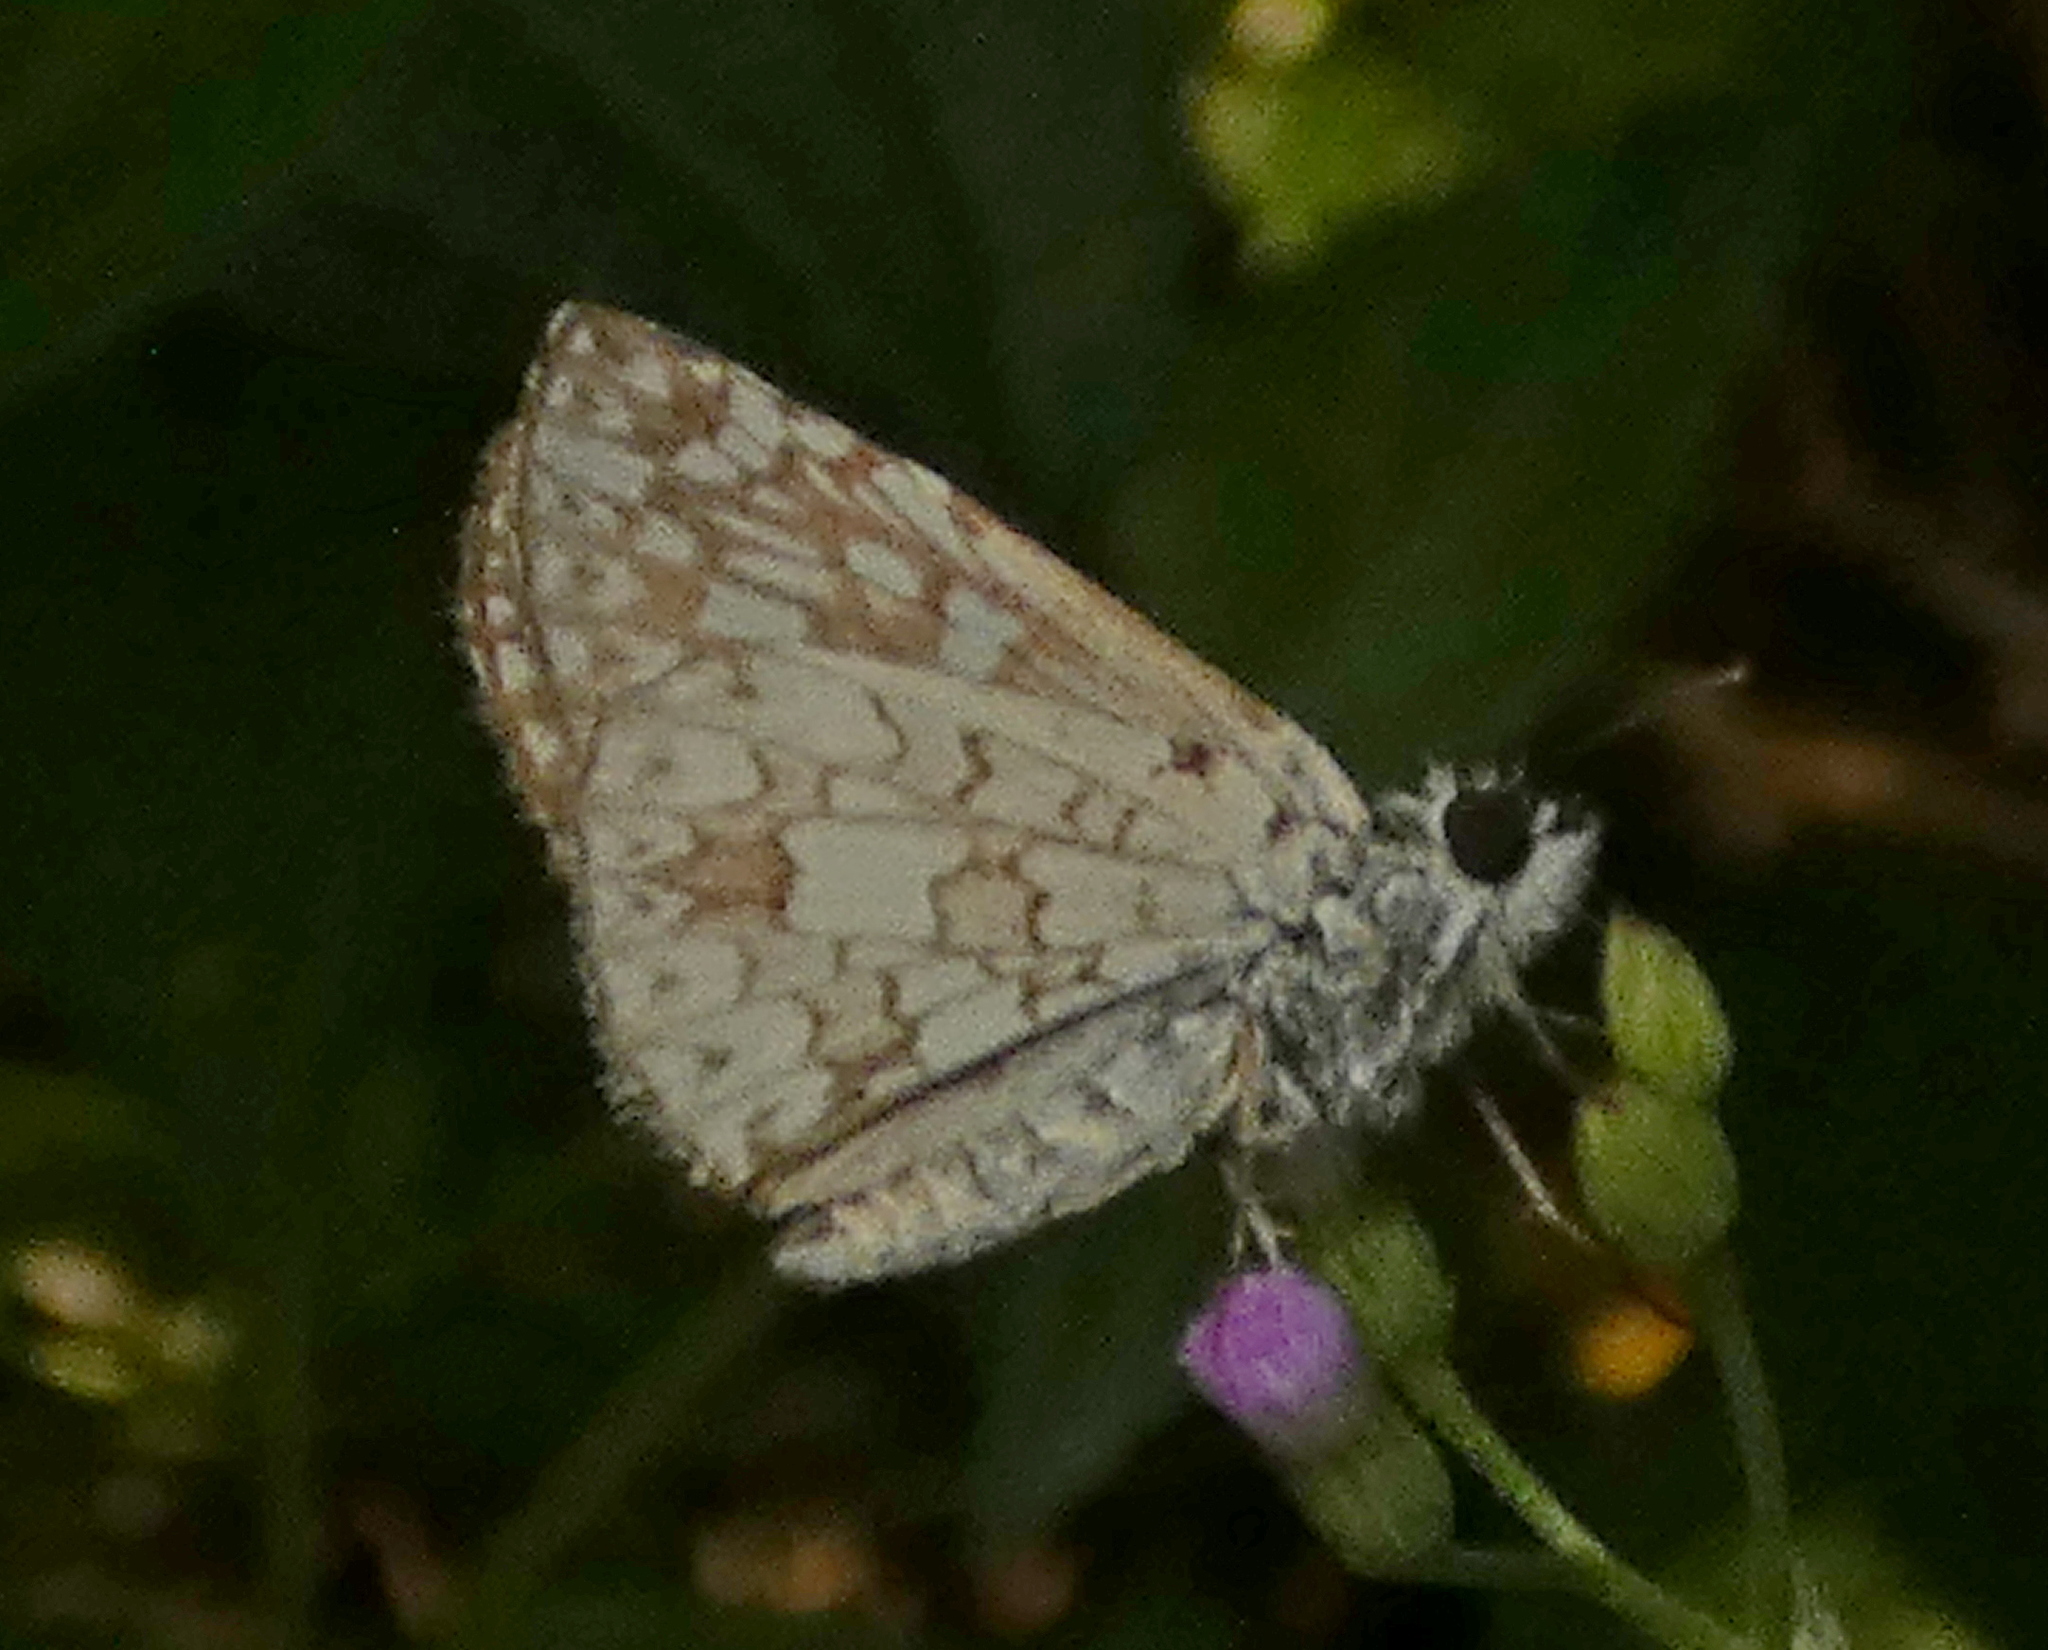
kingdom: Animalia
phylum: Arthropoda
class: Insecta
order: Lepidoptera
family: Hesperiidae
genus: Pyrgus
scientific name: Pyrgus oileus
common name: Tropical checkered-skipper
